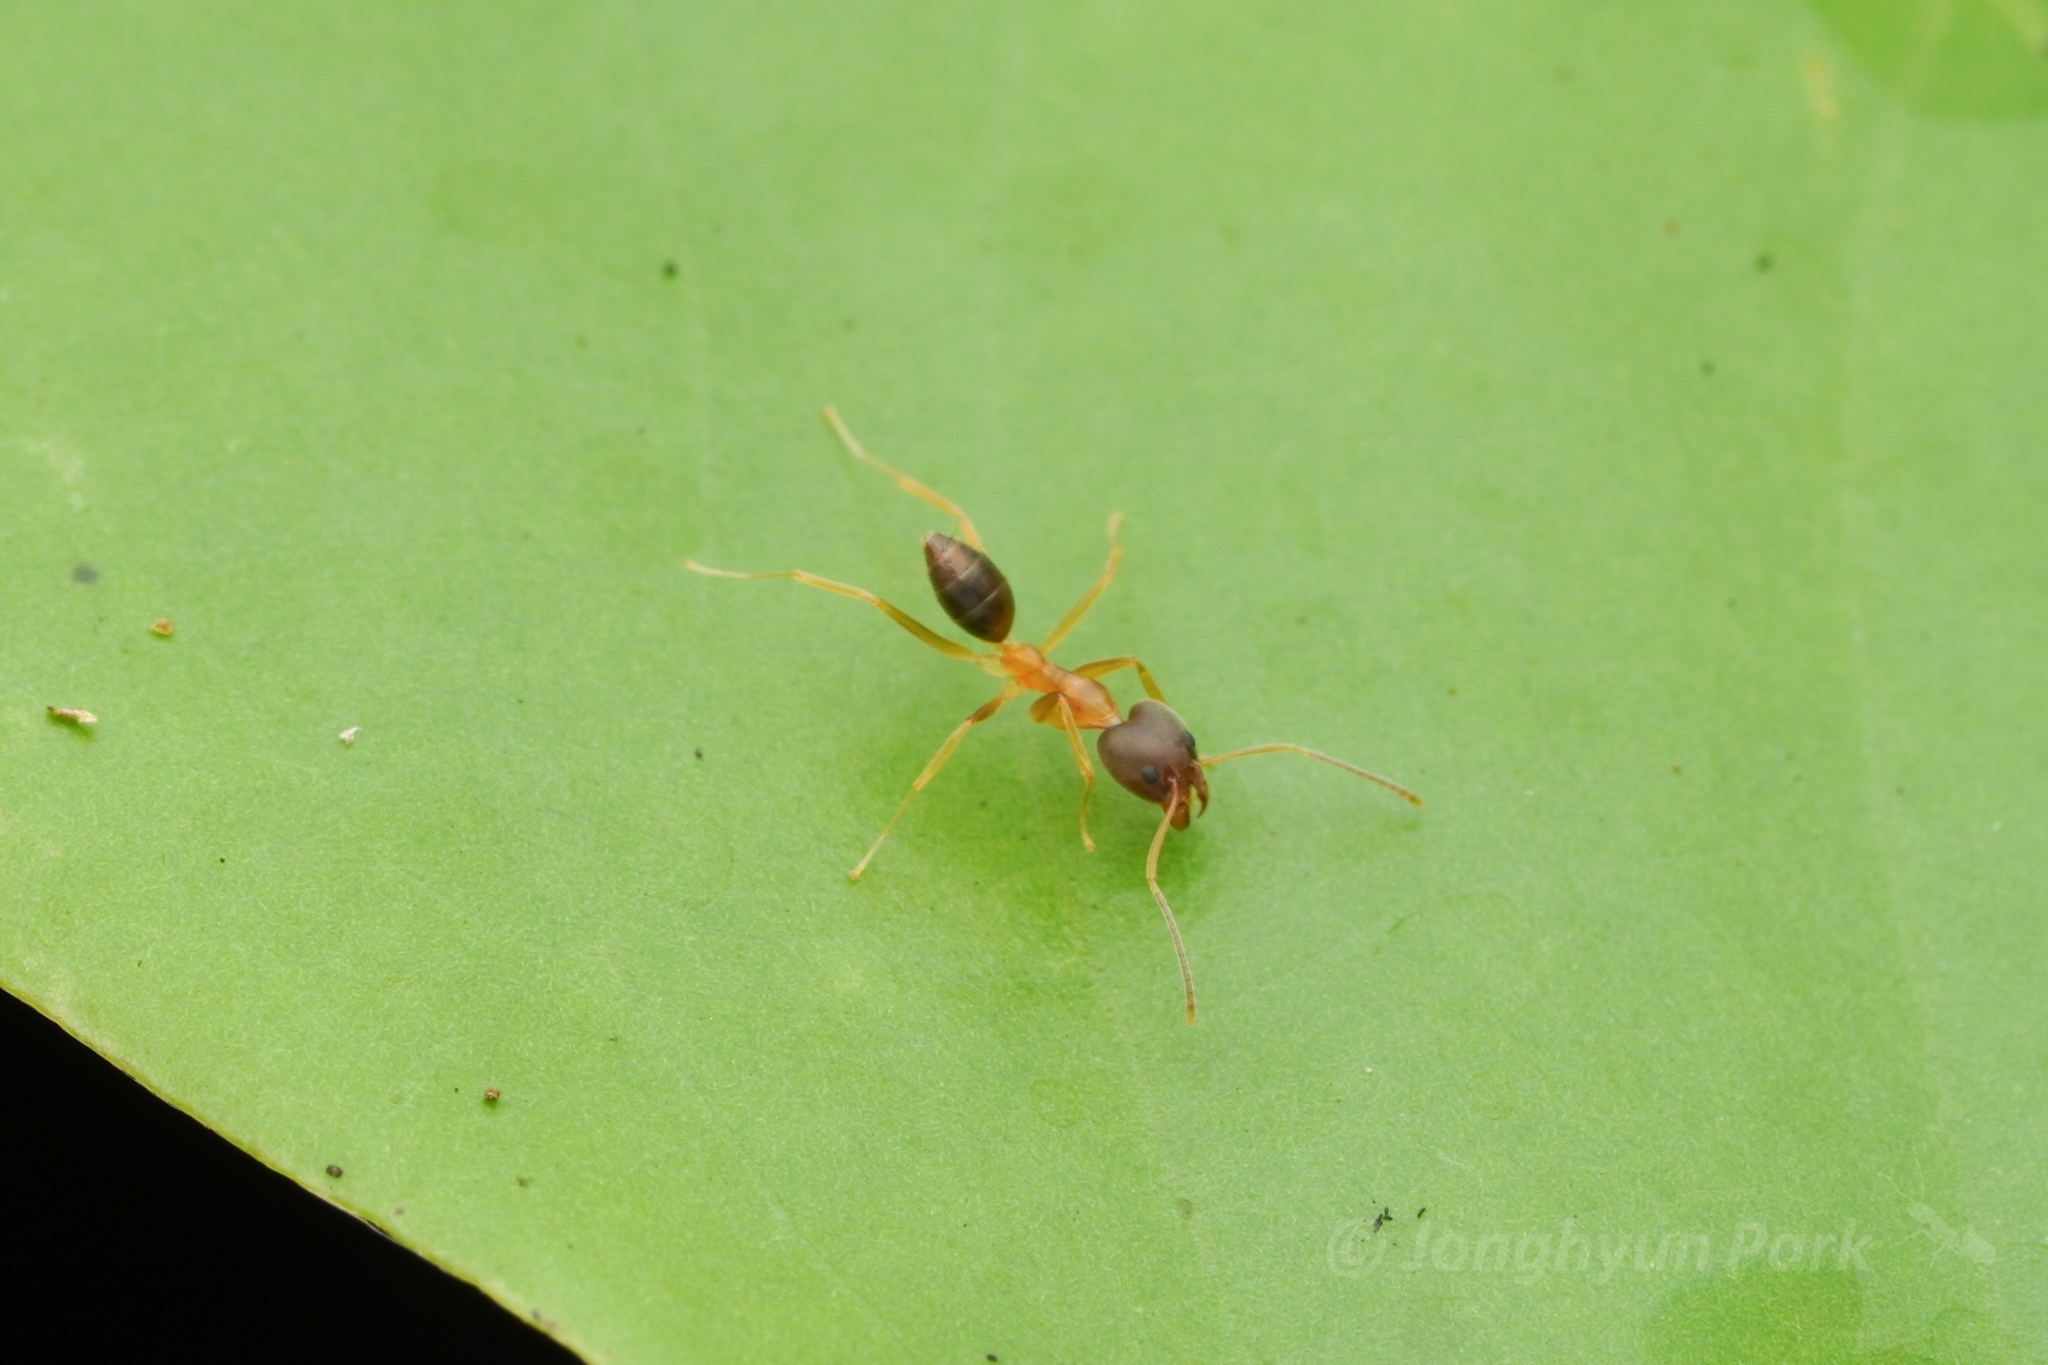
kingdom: Animalia
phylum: Arthropoda
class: Insecta
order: Hymenoptera
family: Formicidae
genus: Technomyrmex
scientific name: Technomyrmex lisae
